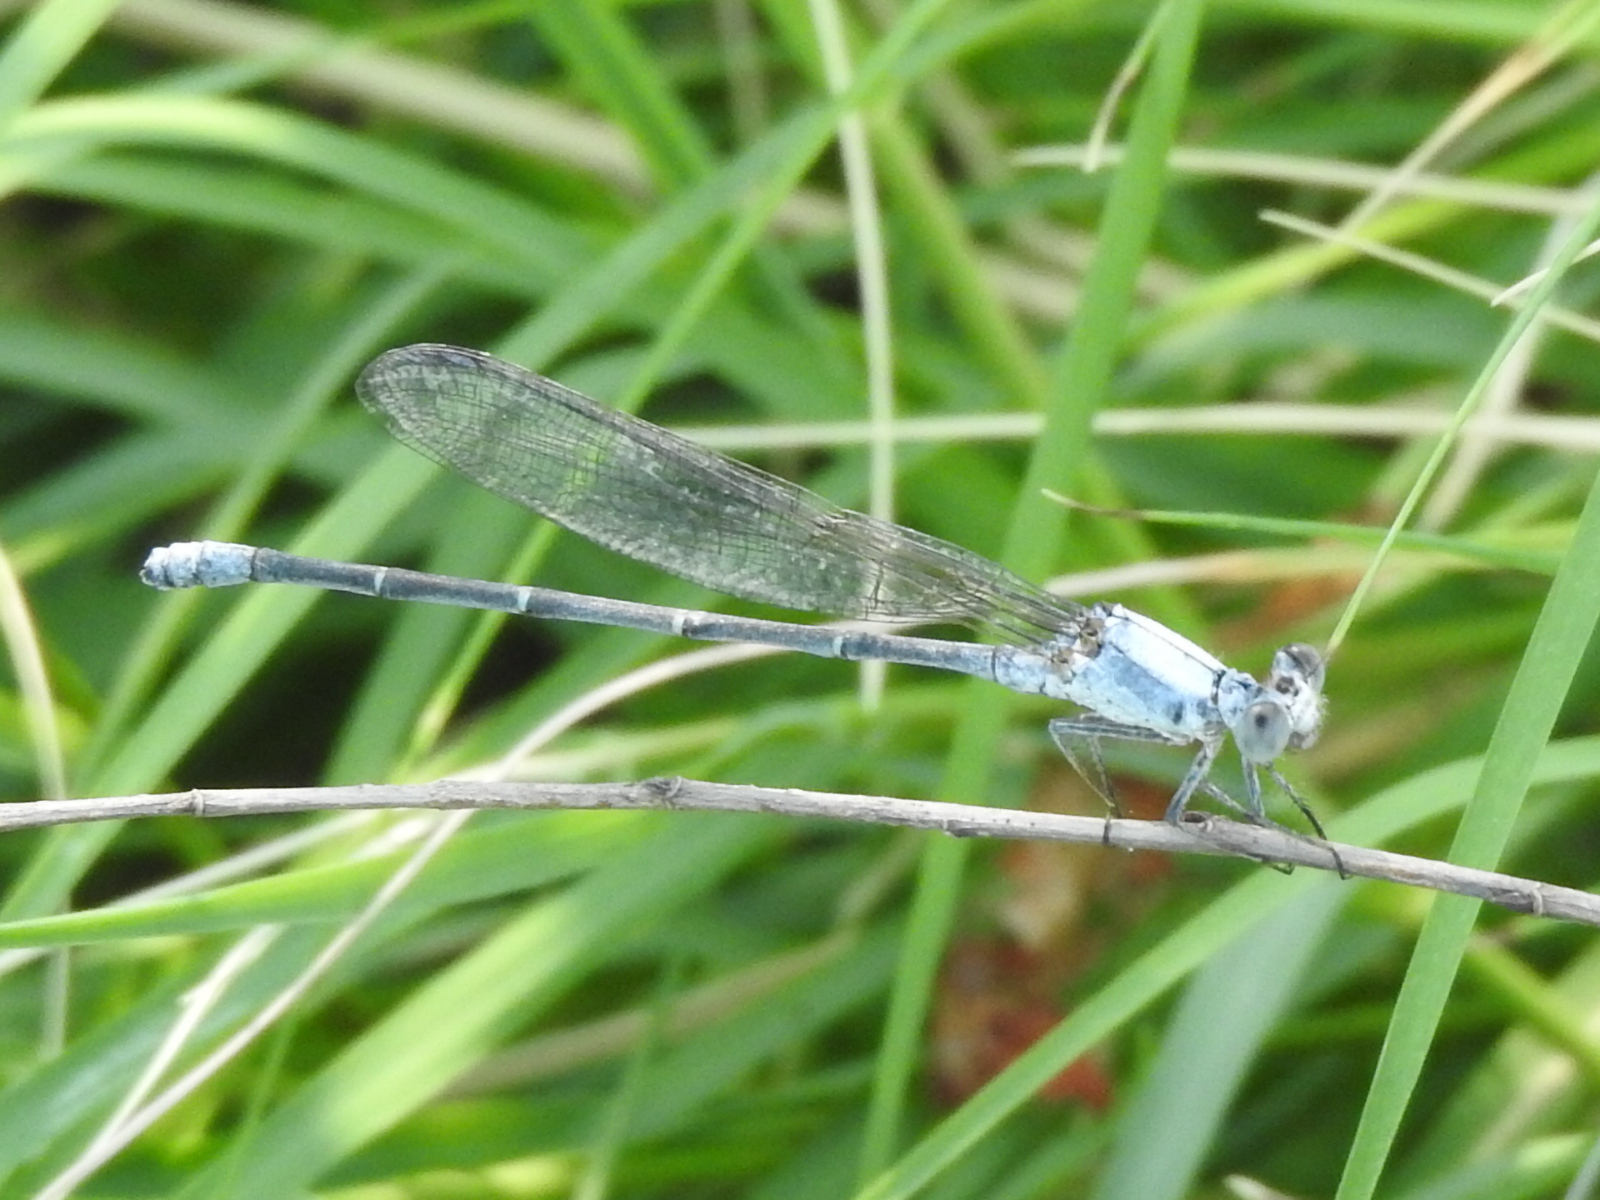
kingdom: Animalia
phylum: Arthropoda
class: Insecta
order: Odonata
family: Coenagrionidae
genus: Argia
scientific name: Argia moesta
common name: Powdered dancer
